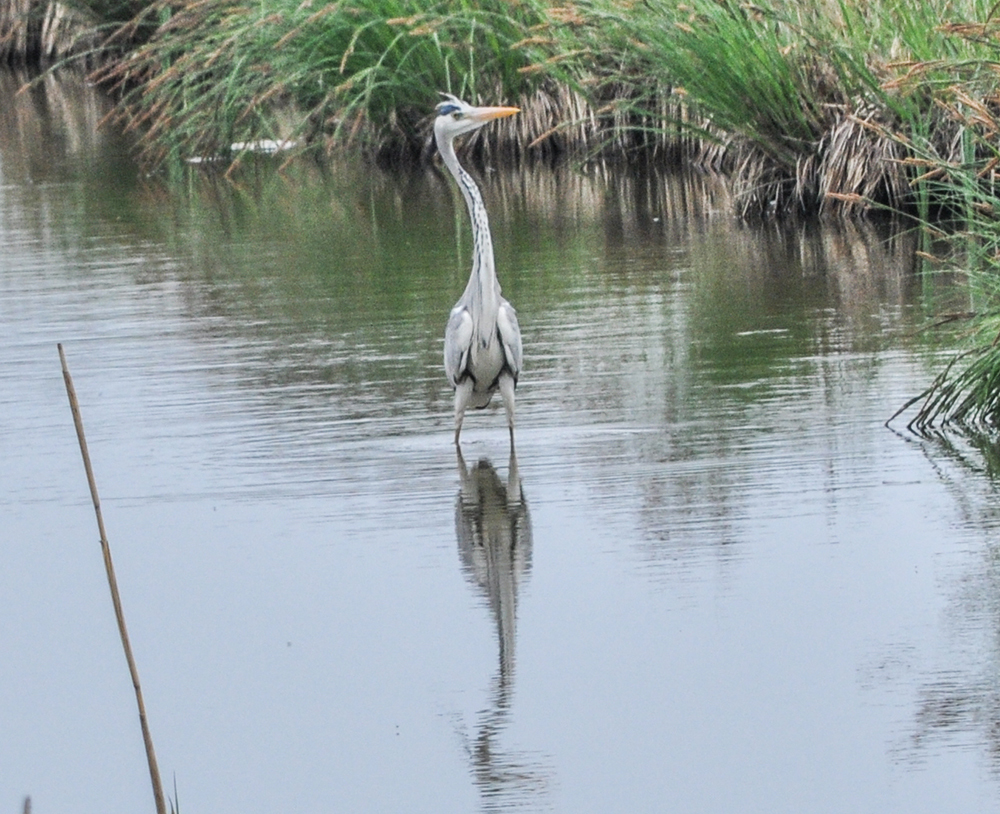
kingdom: Animalia
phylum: Chordata
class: Aves
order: Pelecaniformes
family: Ardeidae
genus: Ardea
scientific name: Ardea cinerea
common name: Grey heron
